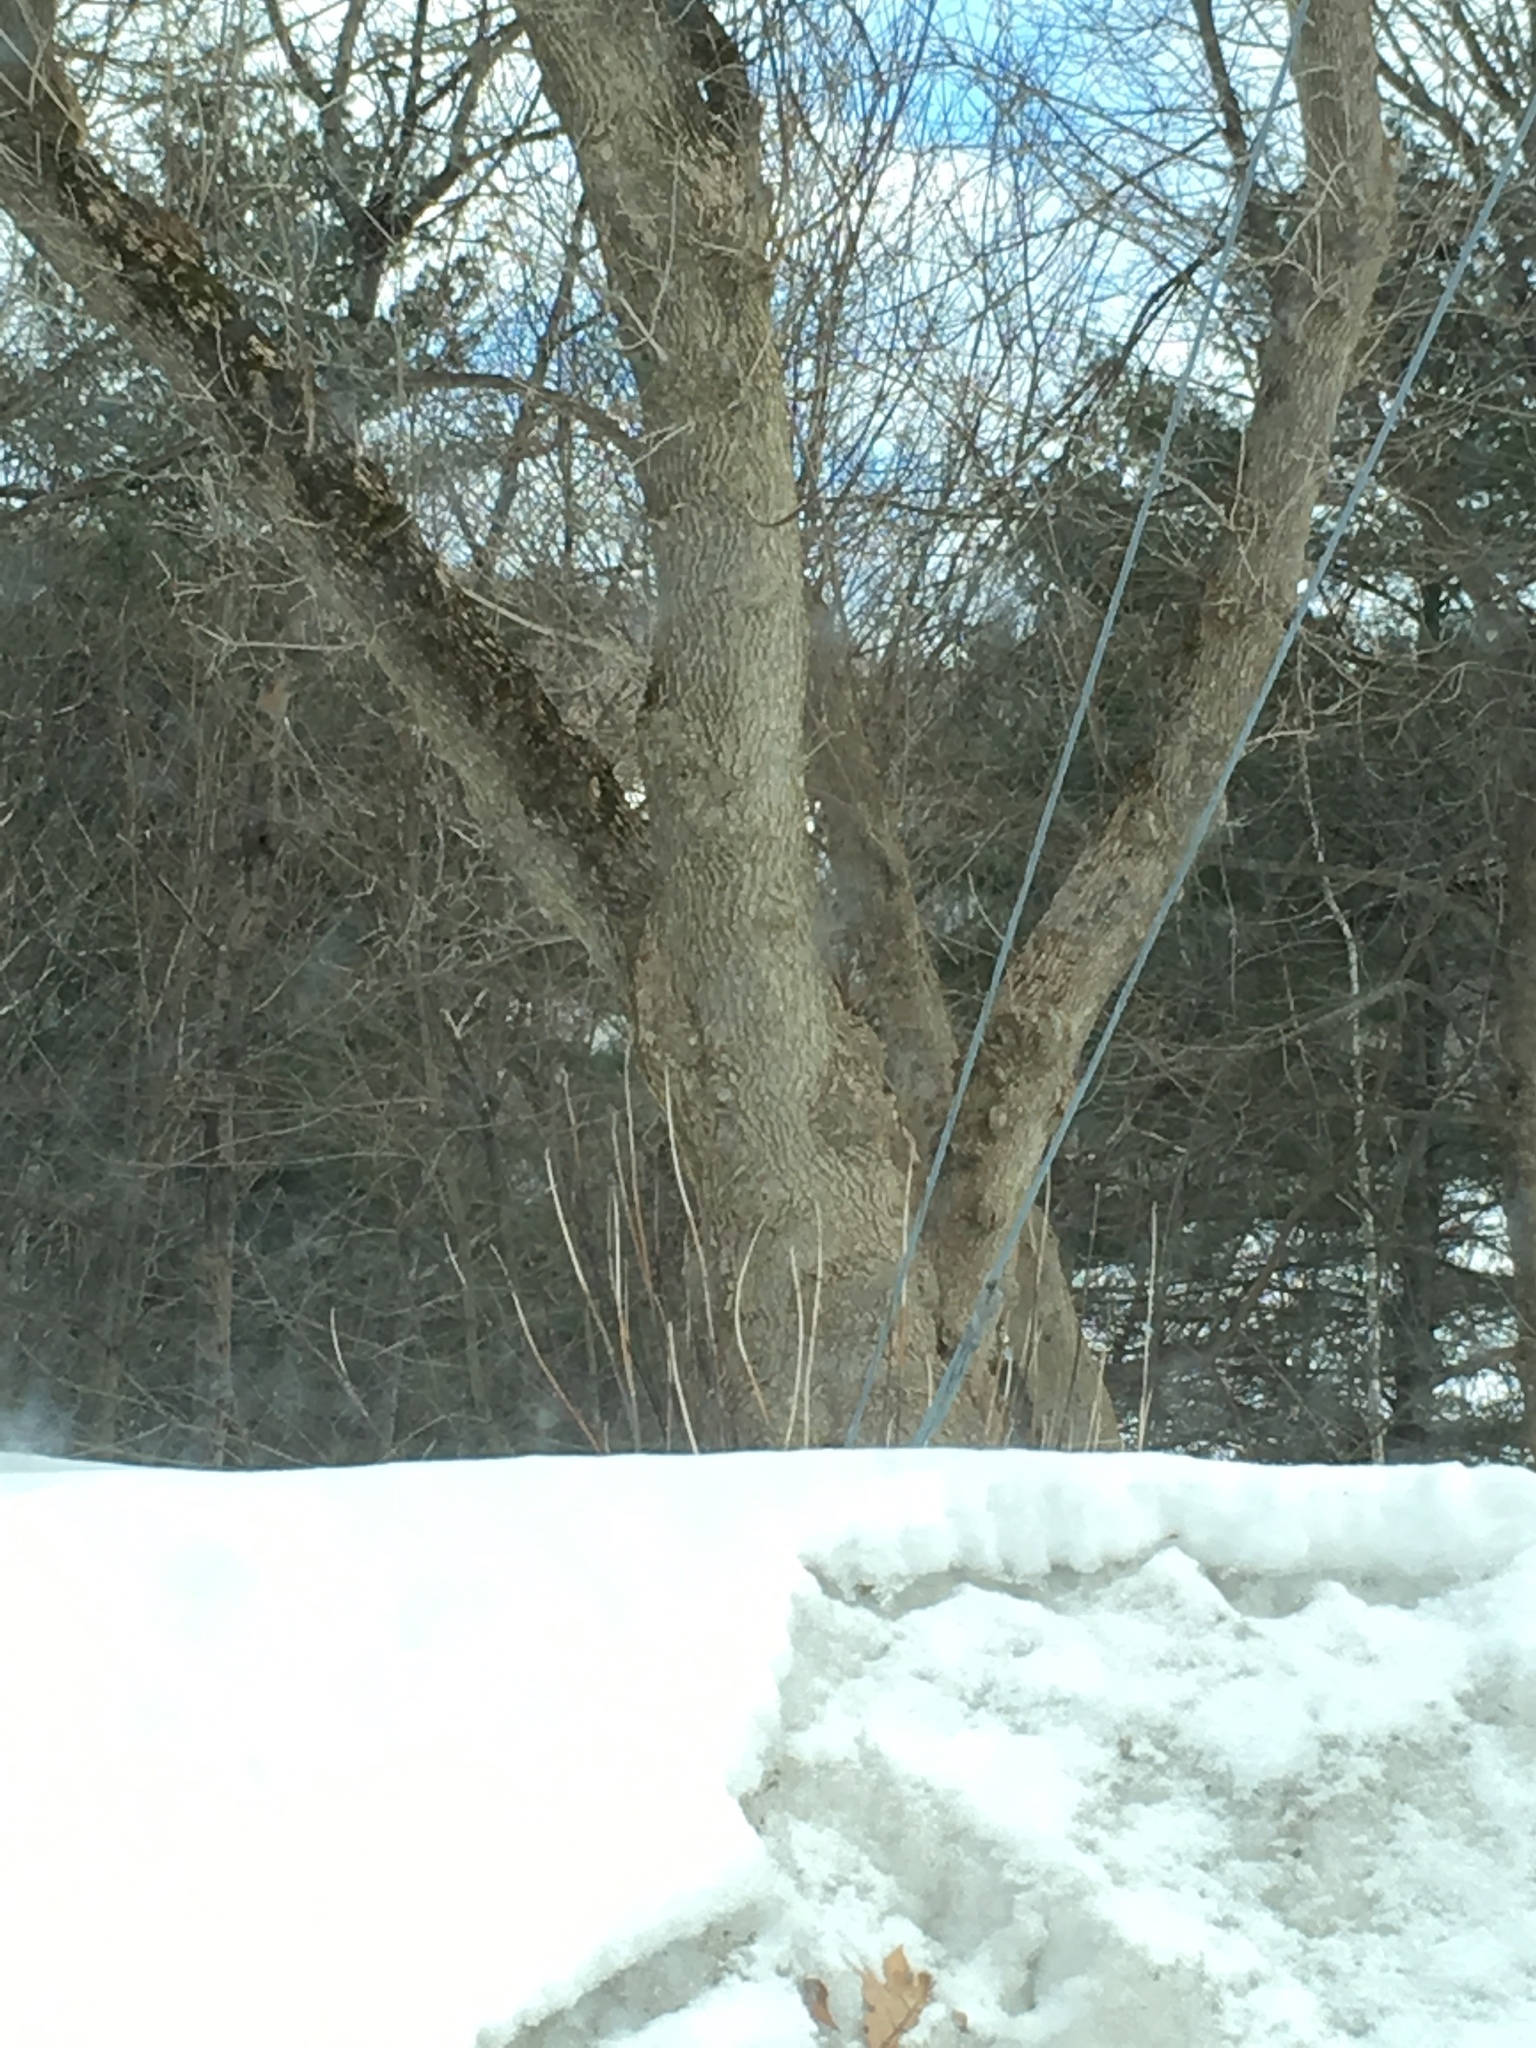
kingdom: Plantae
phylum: Tracheophyta
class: Magnoliopsida
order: Sapindales
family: Sapindaceae
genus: Acer
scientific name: Acer negundo
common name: Ashleaf maple
